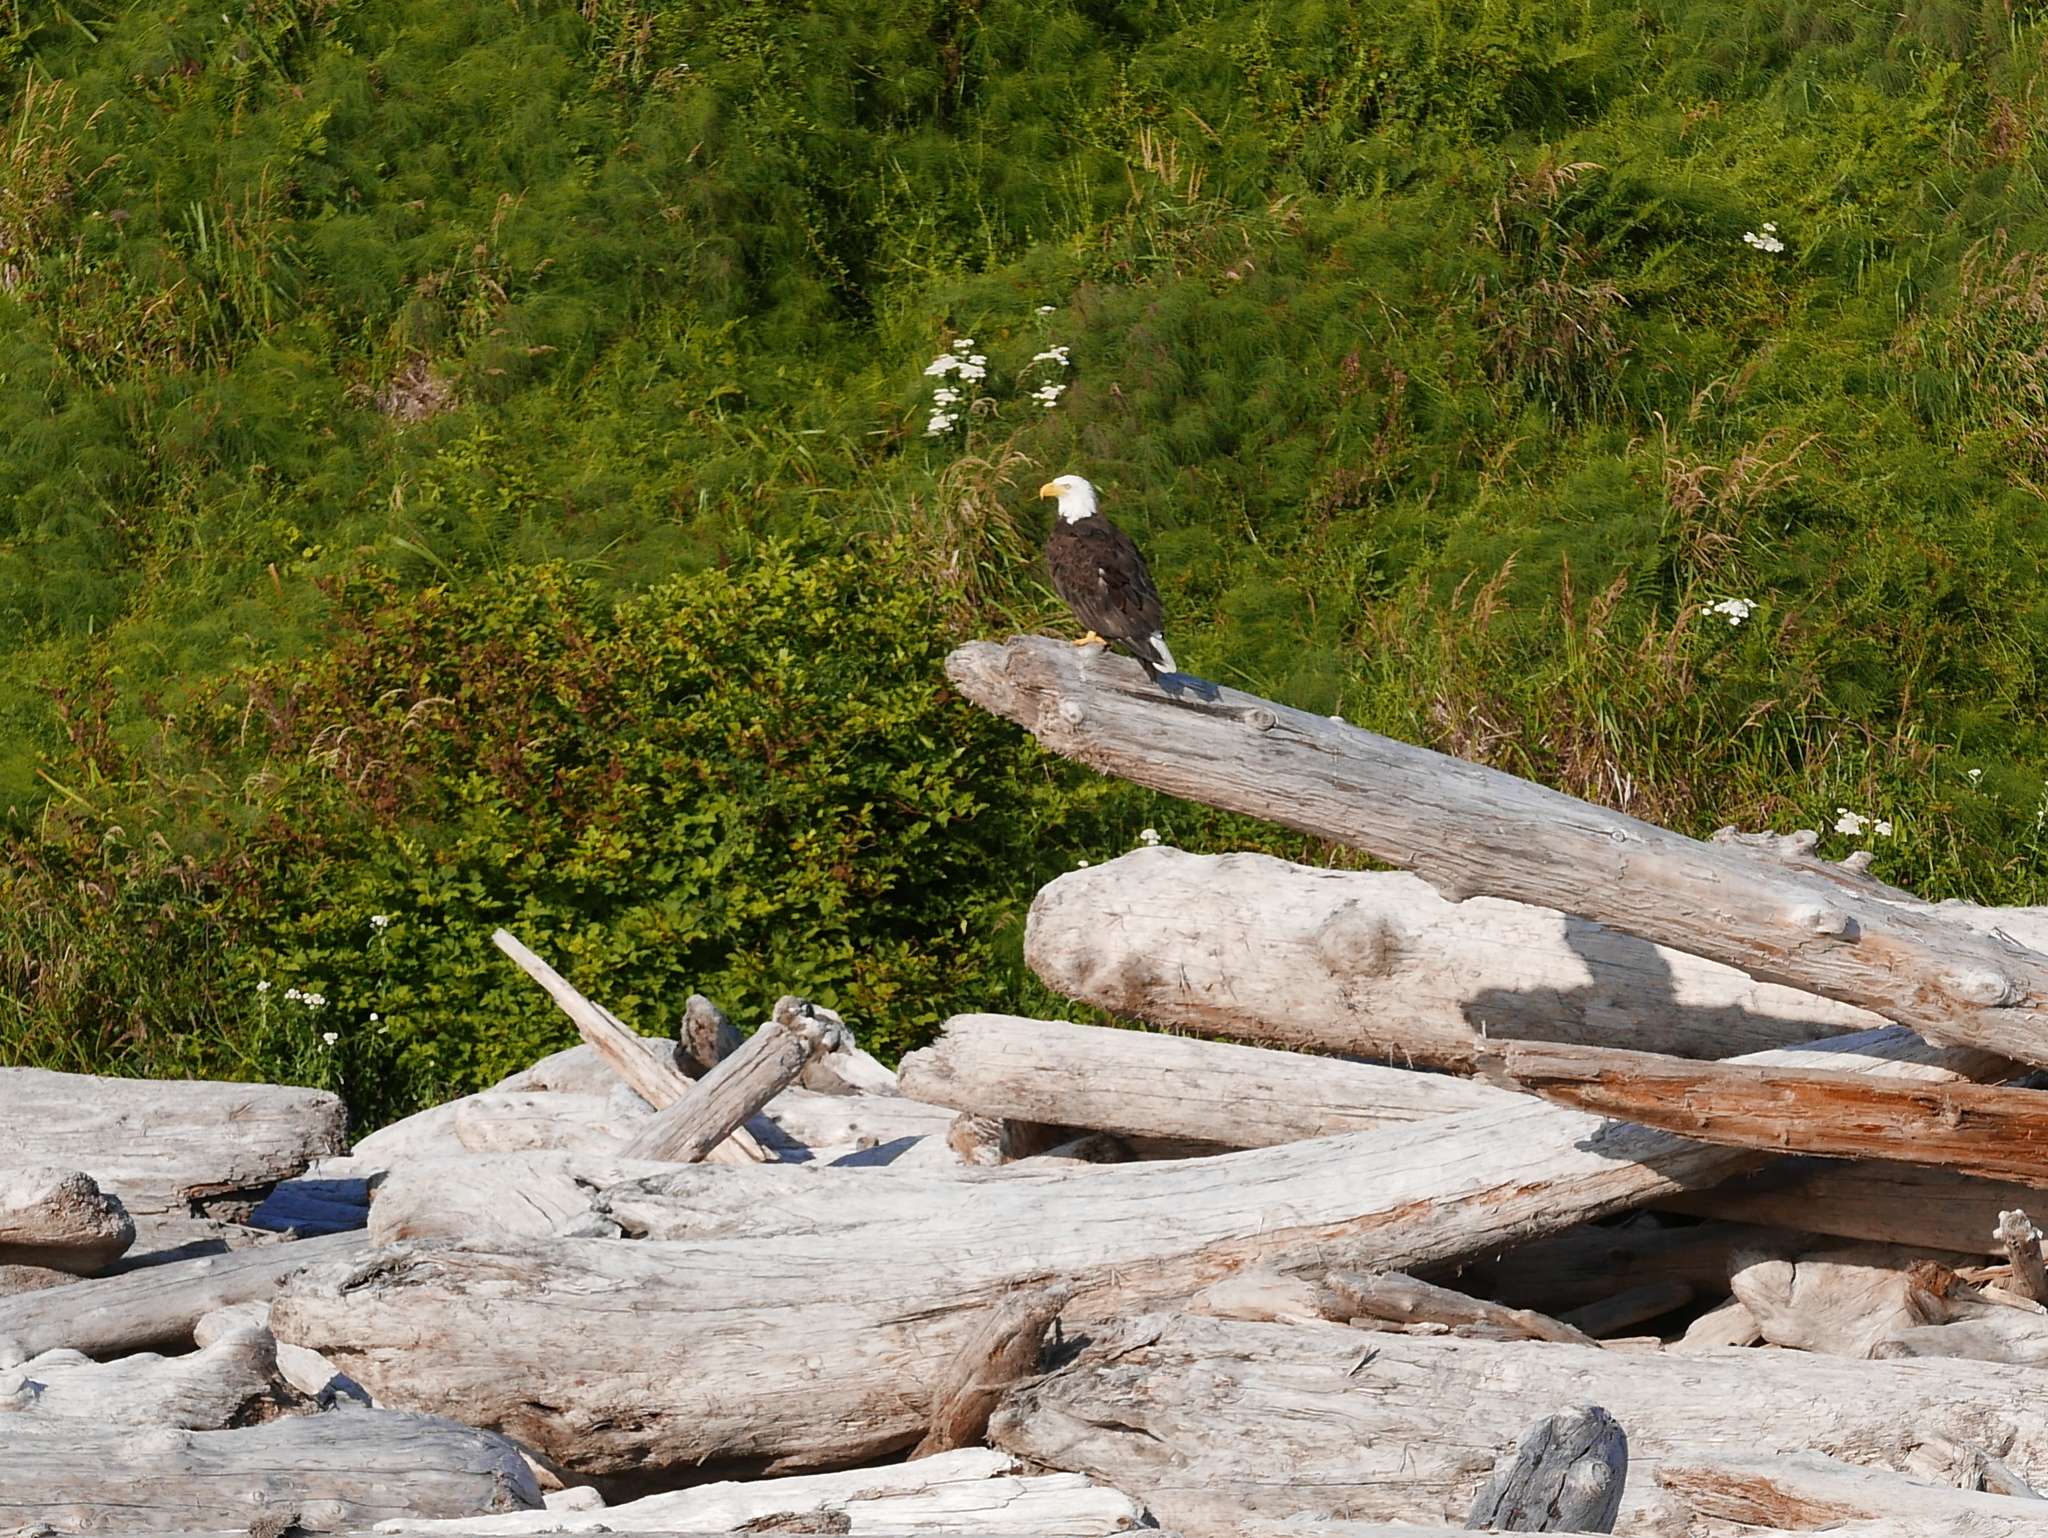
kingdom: Animalia
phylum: Chordata
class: Aves
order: Accipitriformes
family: Accipitridae
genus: Haliaeetus
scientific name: Haliaeetus leucocephalus
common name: Bald eagle
